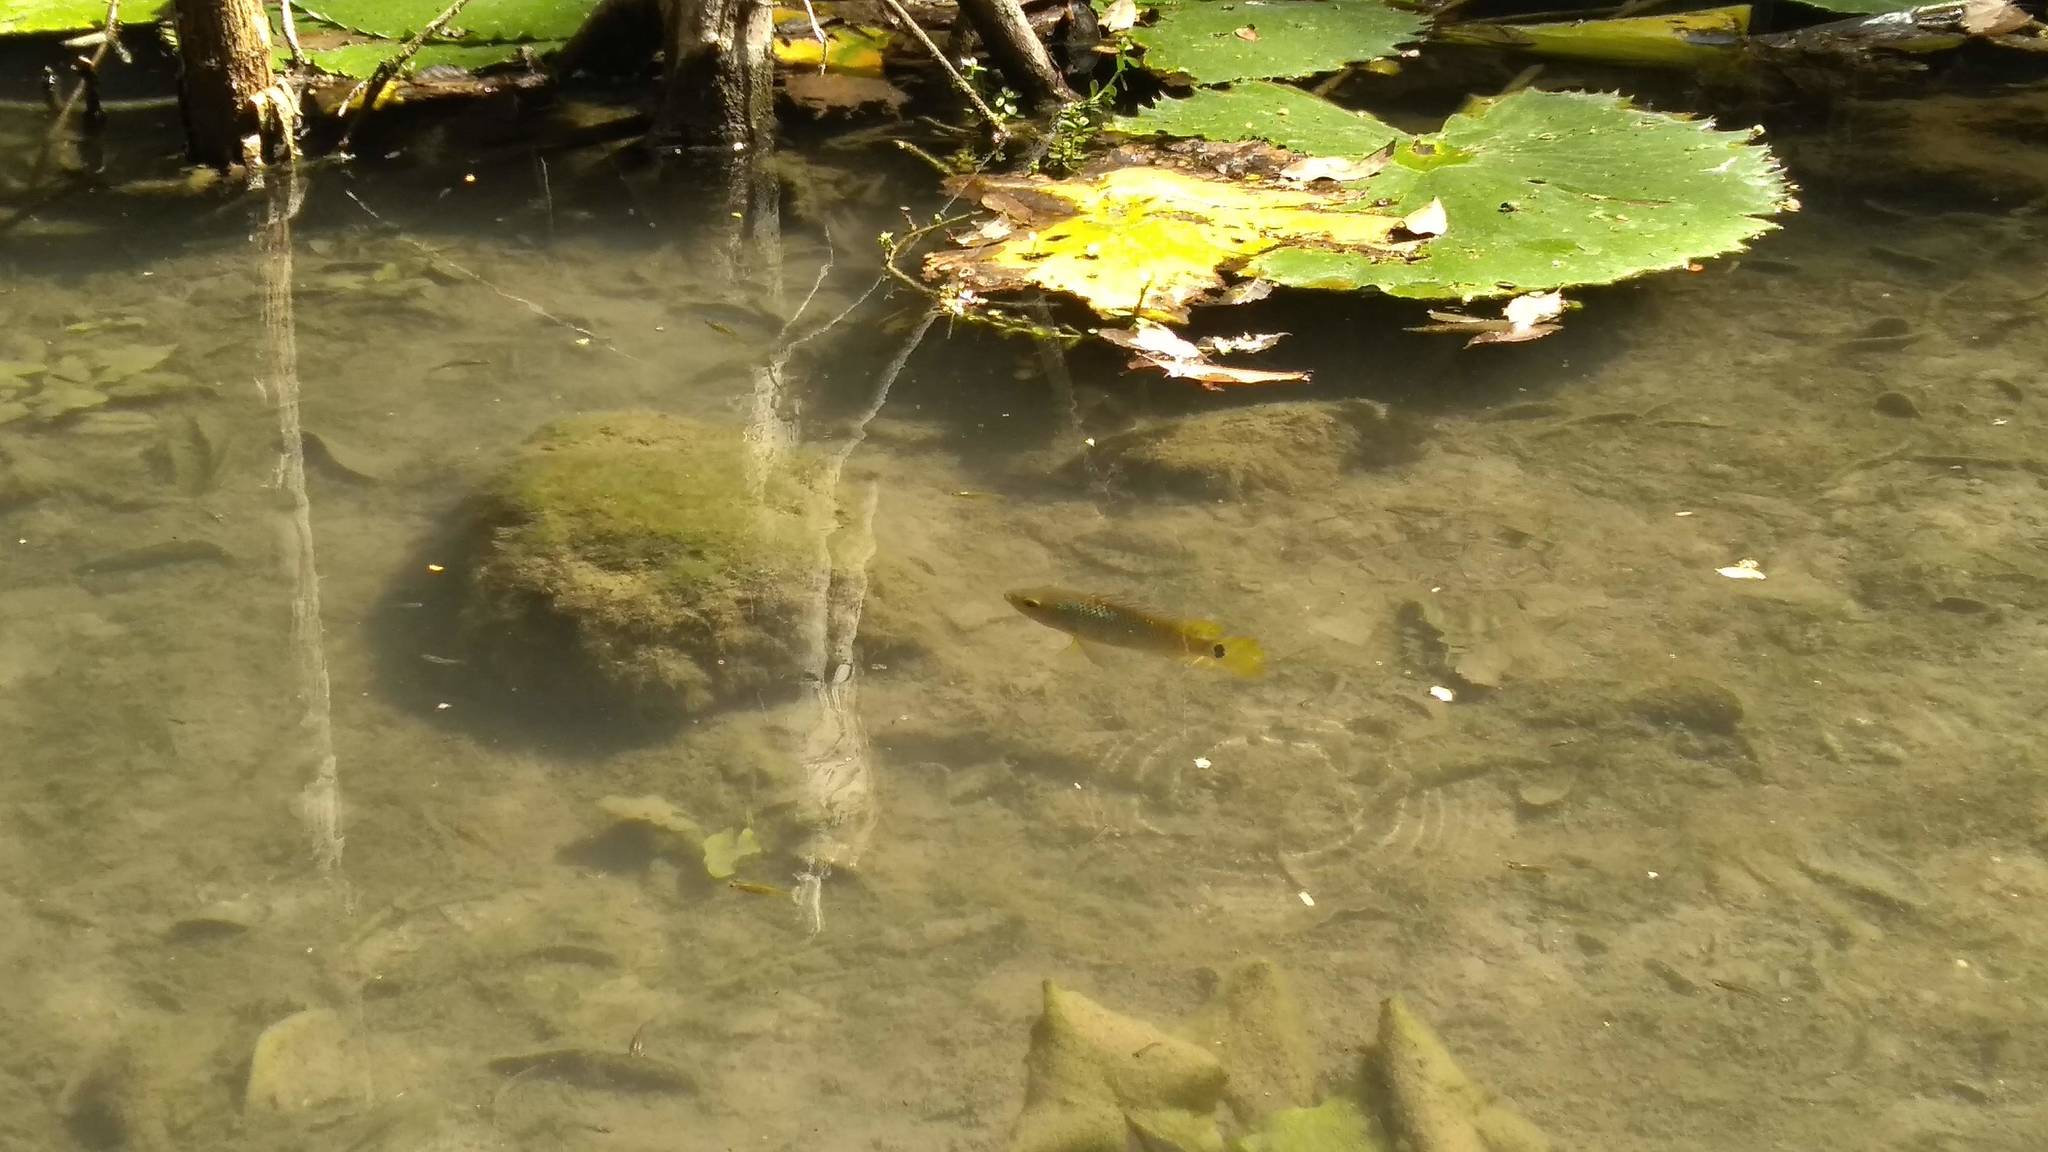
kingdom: Animalia
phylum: Chordata
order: Perciformes
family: Cichlidae
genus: Mayaheros
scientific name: Mayaheros urophthalmus
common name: Mayan cichlid
